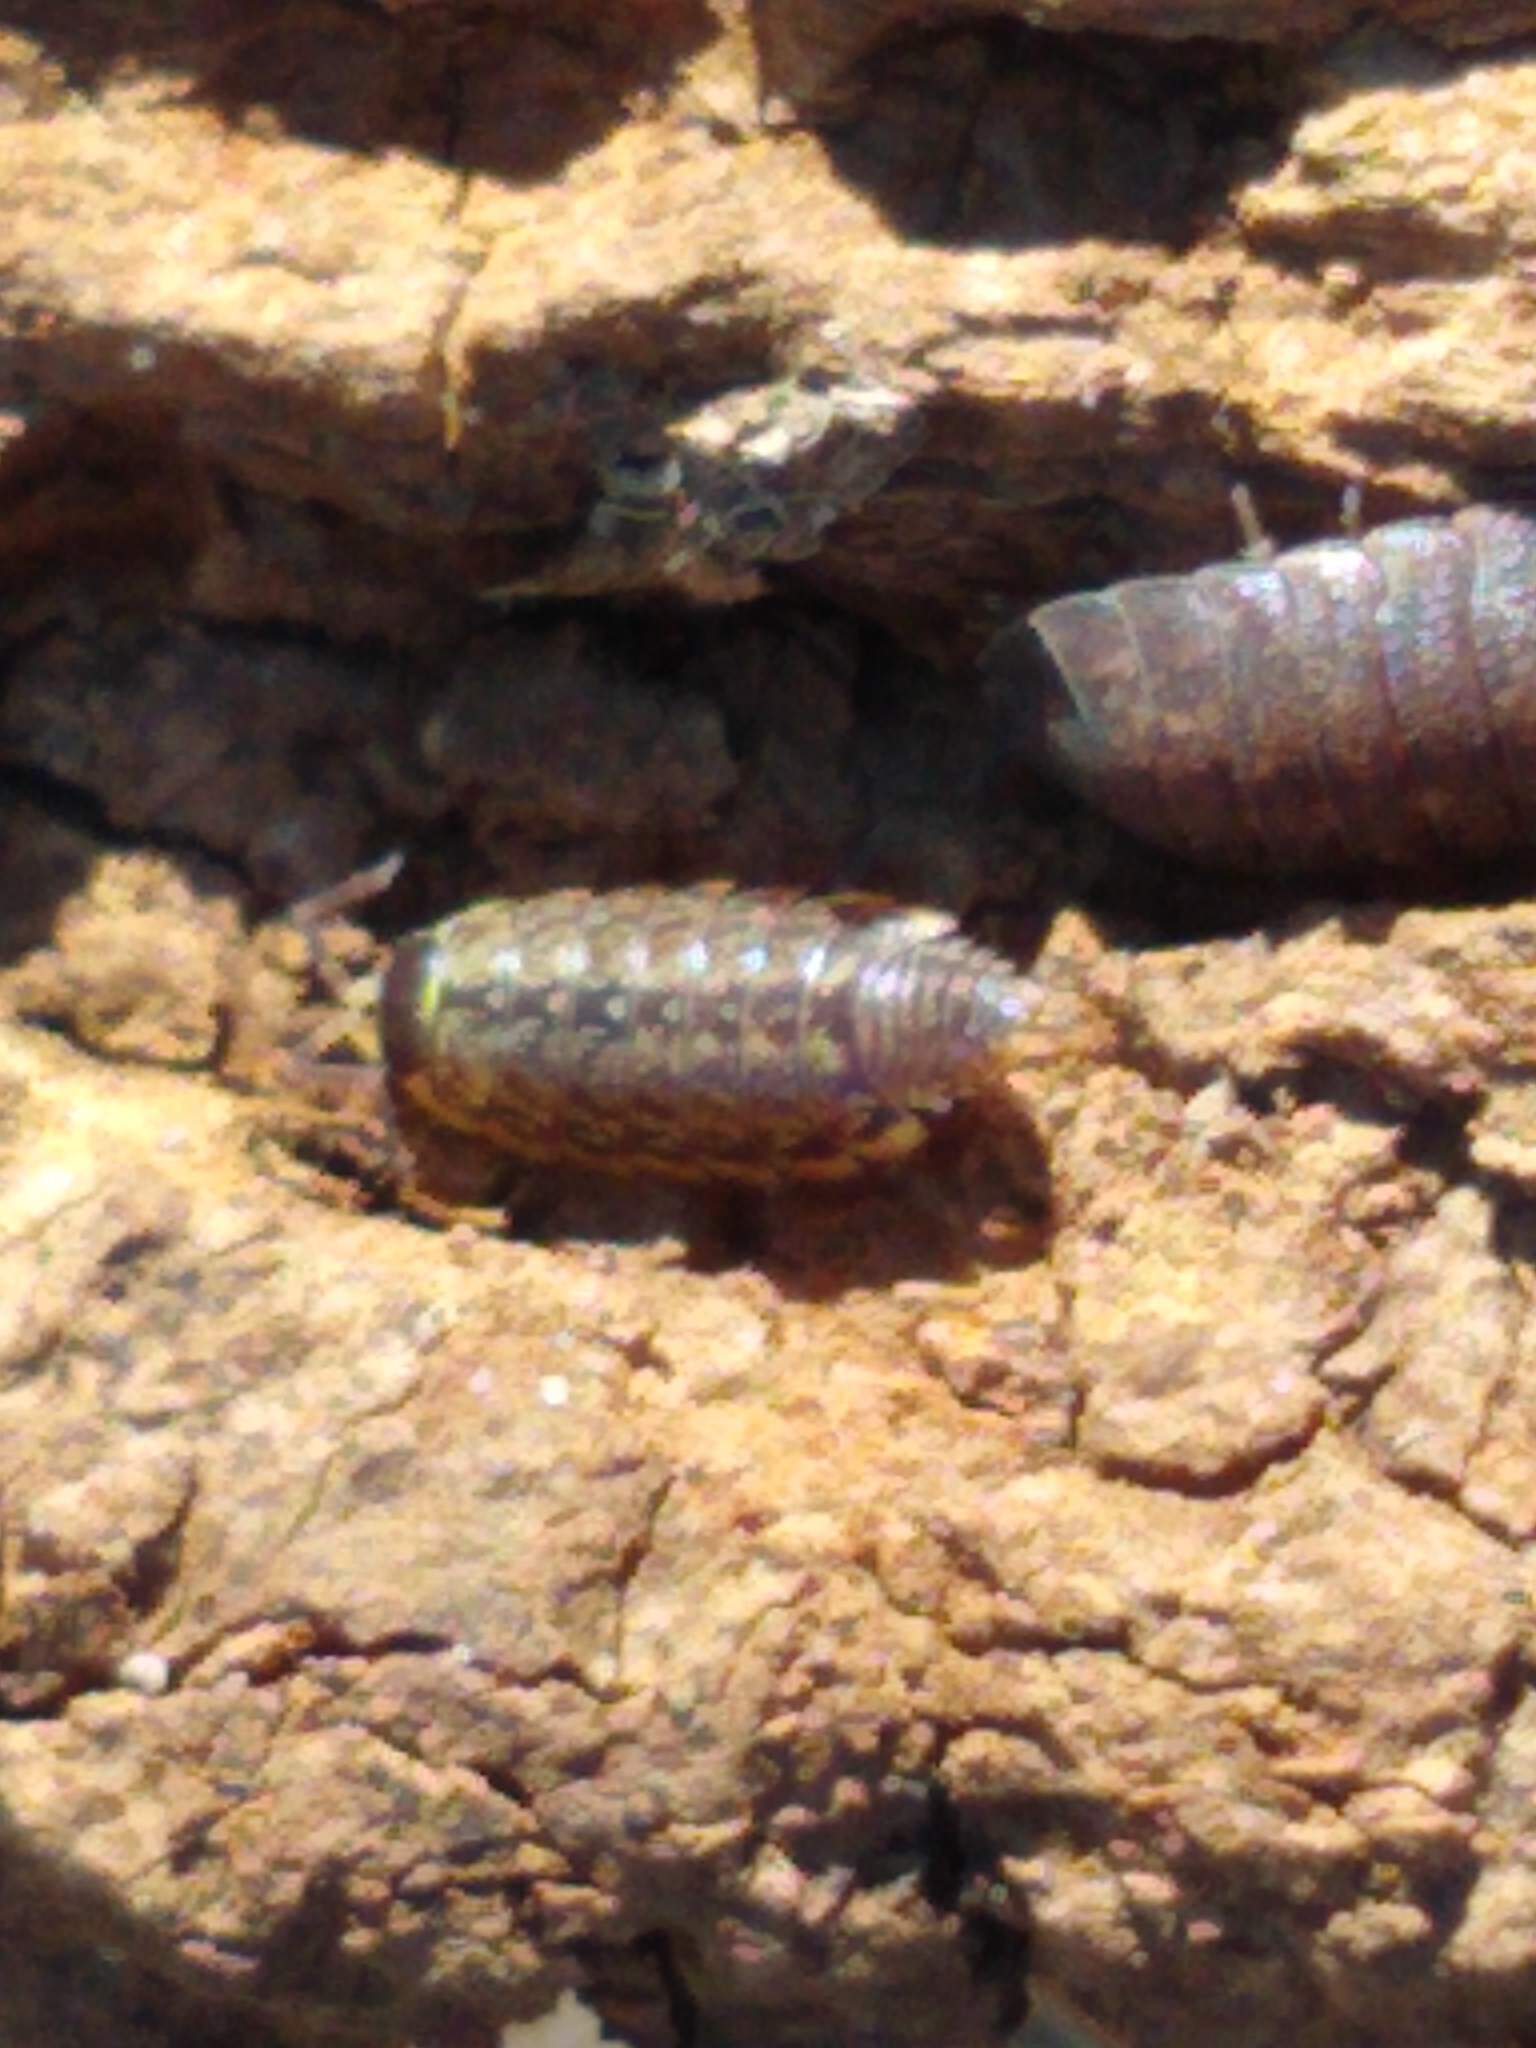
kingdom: Animalia
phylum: Arthropoda
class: Malacostraca
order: Isopoda
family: Philosciidae
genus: Philoscia
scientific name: Philoscia muscorum
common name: Common striped woodlouse
